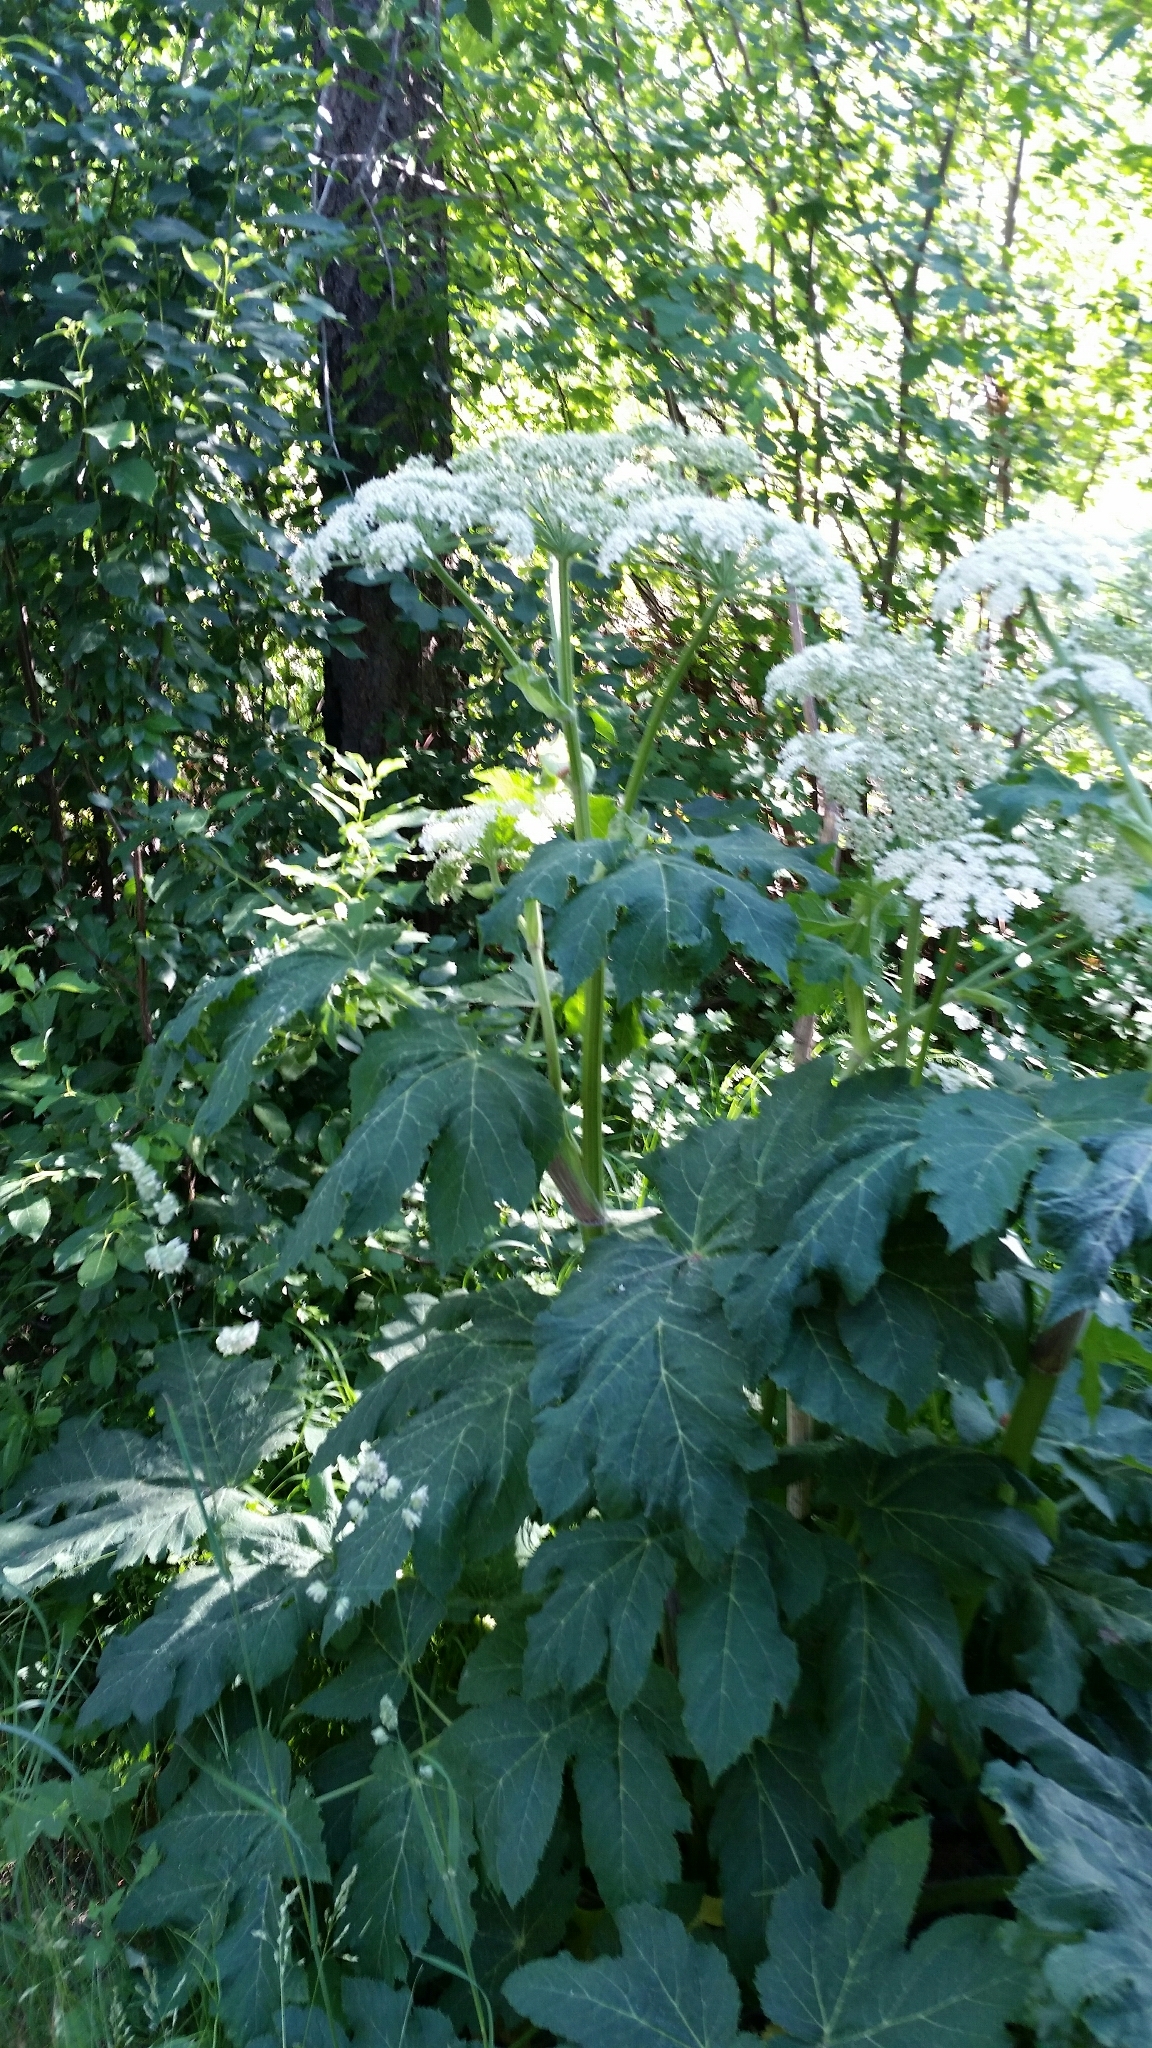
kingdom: Plantae
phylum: Tracheophyta
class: Magnoliopsida
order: Apiales
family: Apiaceae
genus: Heracleum
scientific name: Heracleum maximum
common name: American cow parsnip
